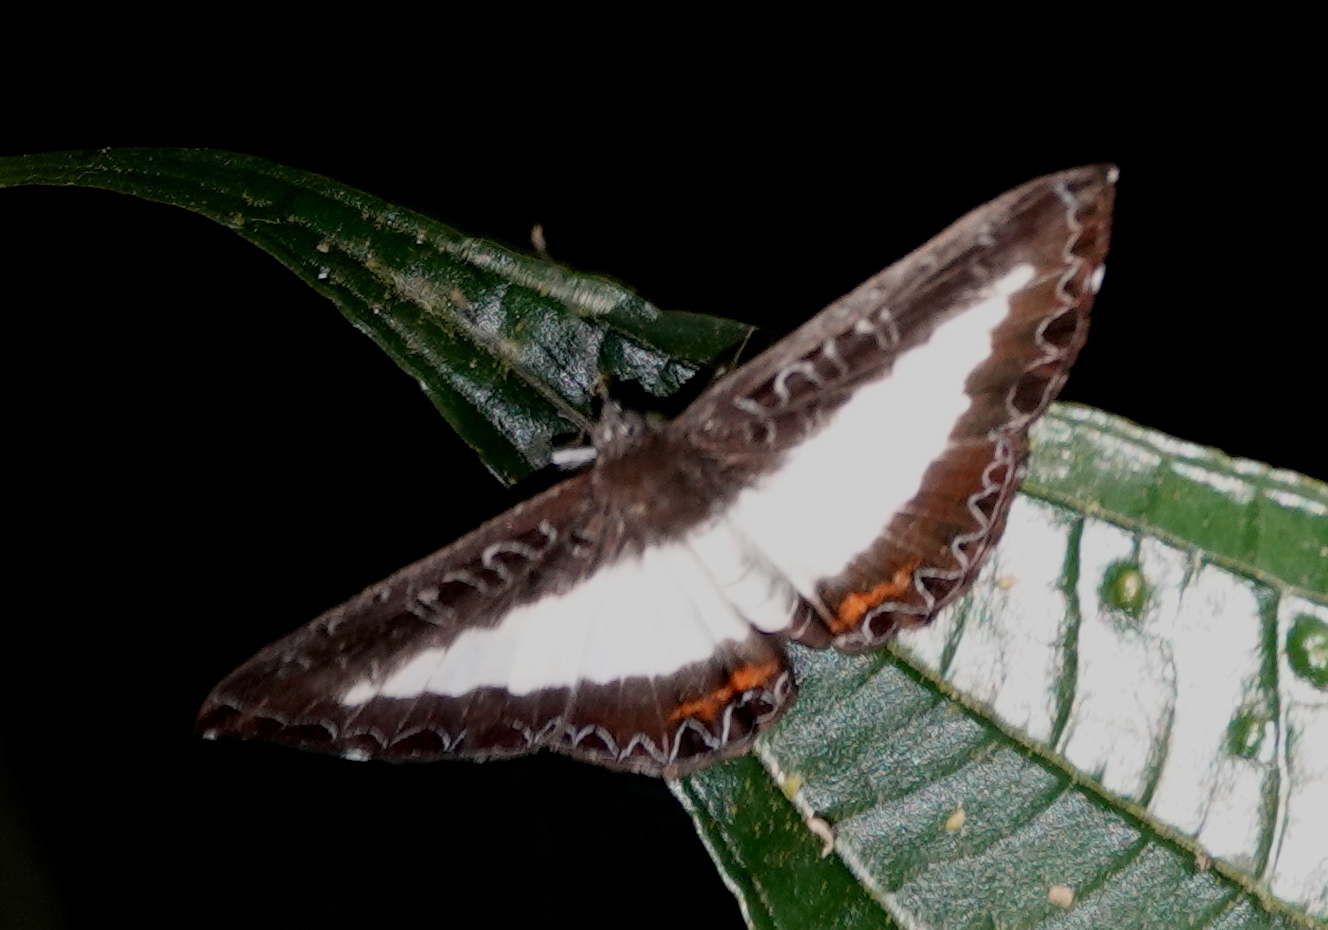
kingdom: Animalia
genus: Nymphidium
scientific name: Nymphidium azanoides
